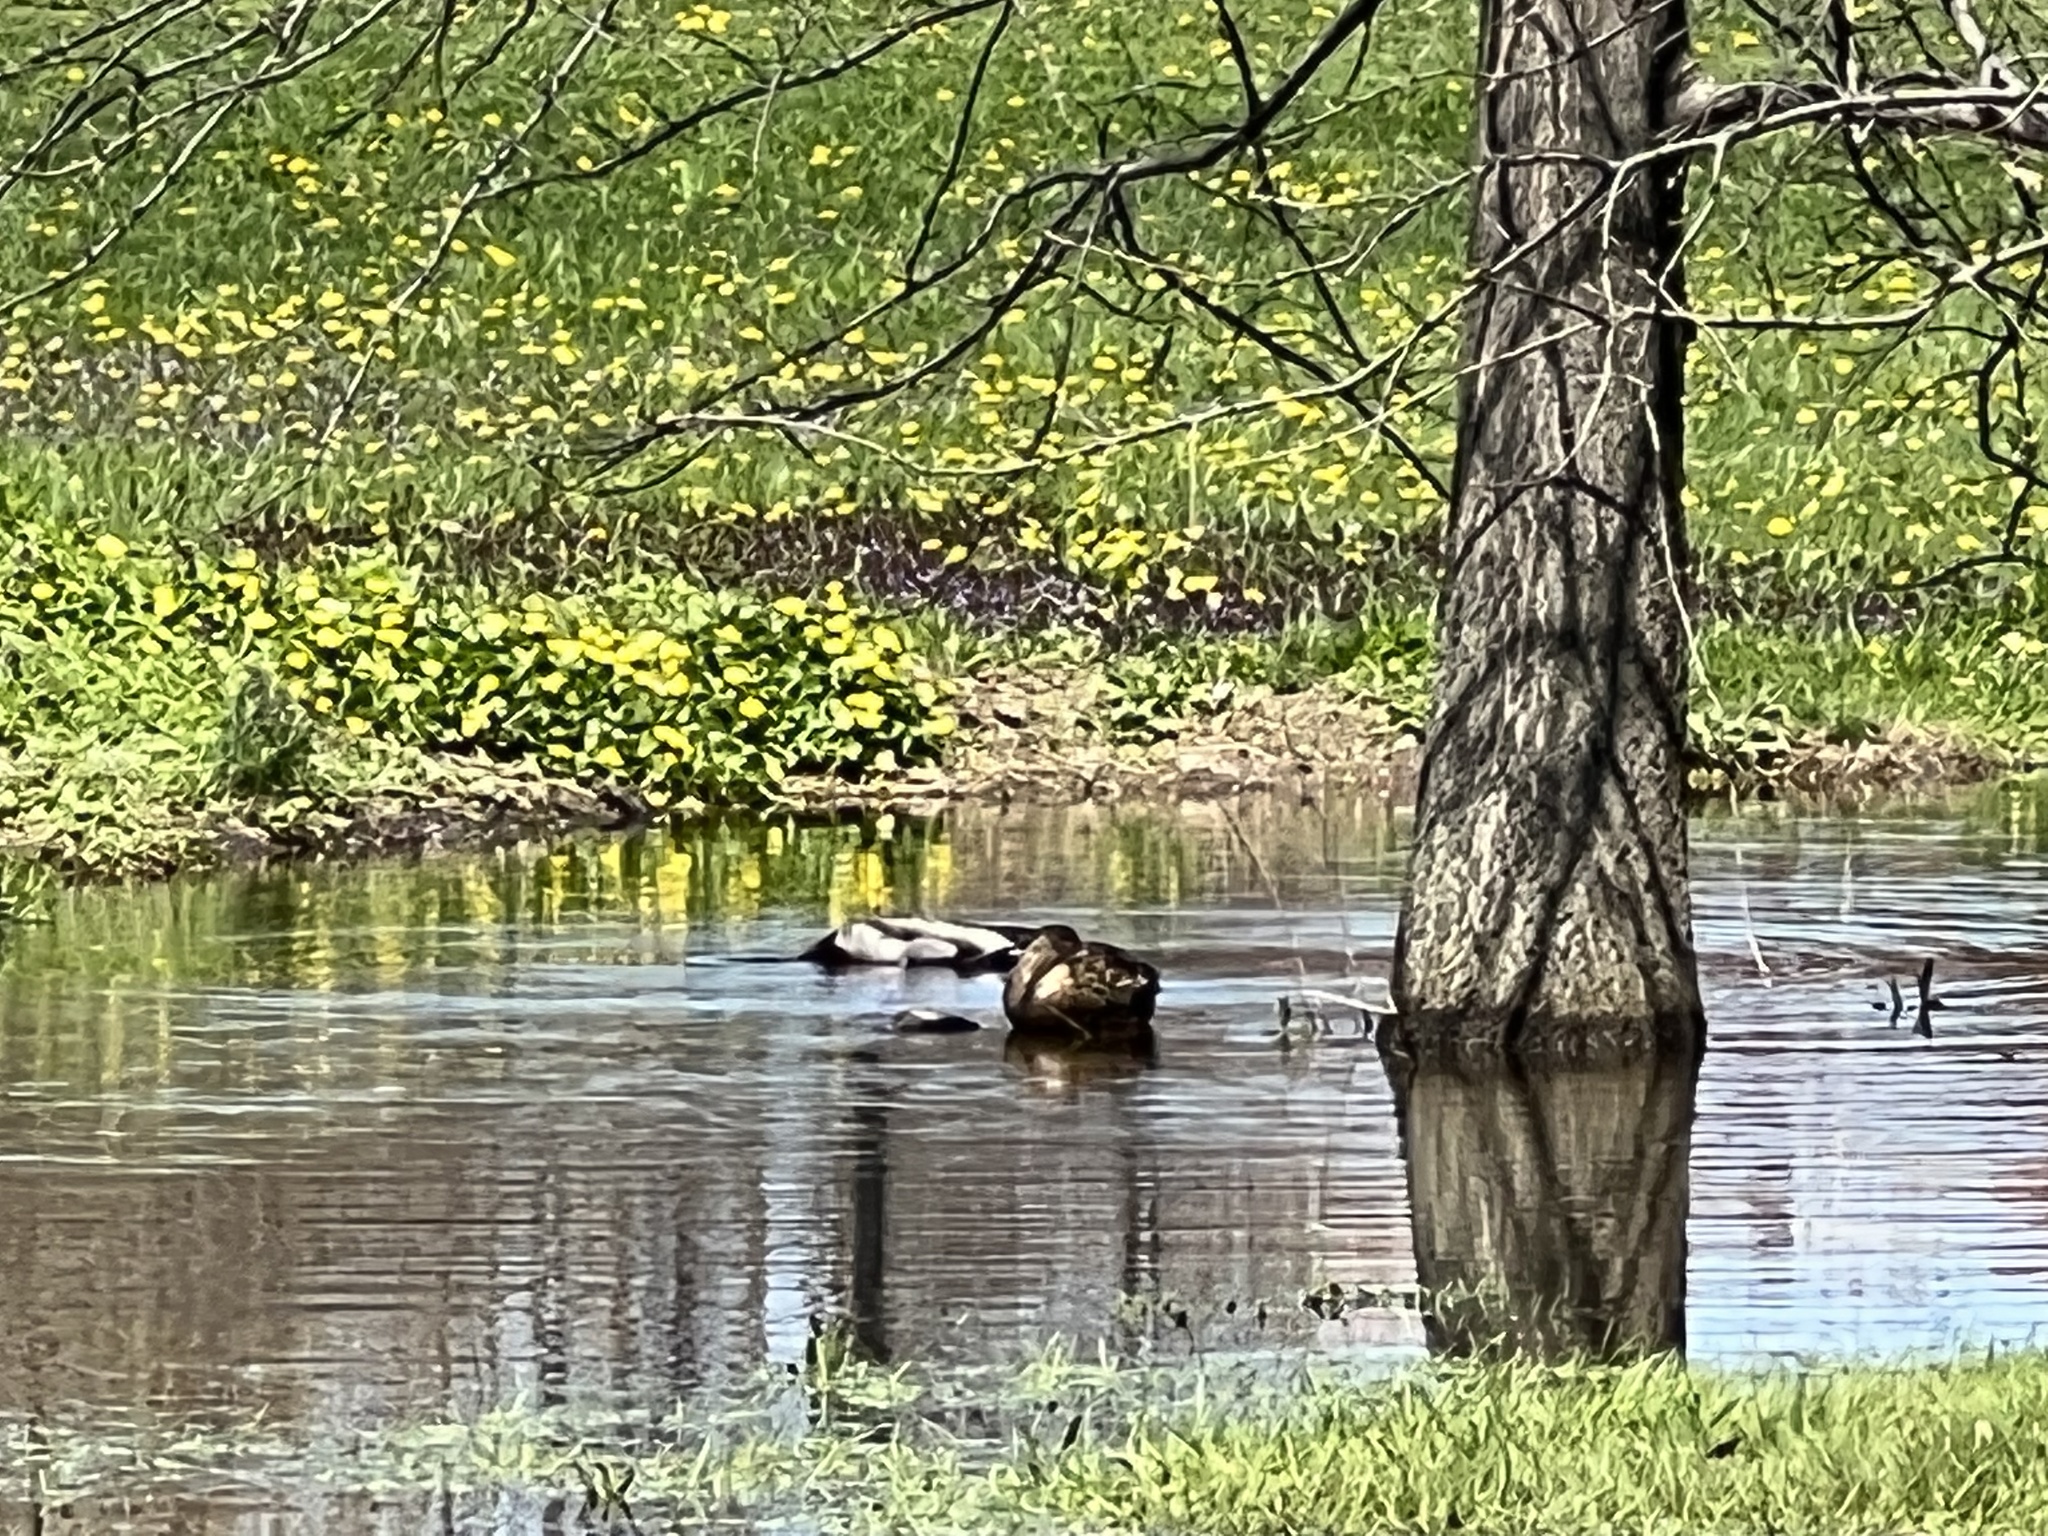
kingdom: Animalia
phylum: Chordata
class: Aves
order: Anseriformes
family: Anatidae
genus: Anas
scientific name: Anas platyrhynchos
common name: Mallard
